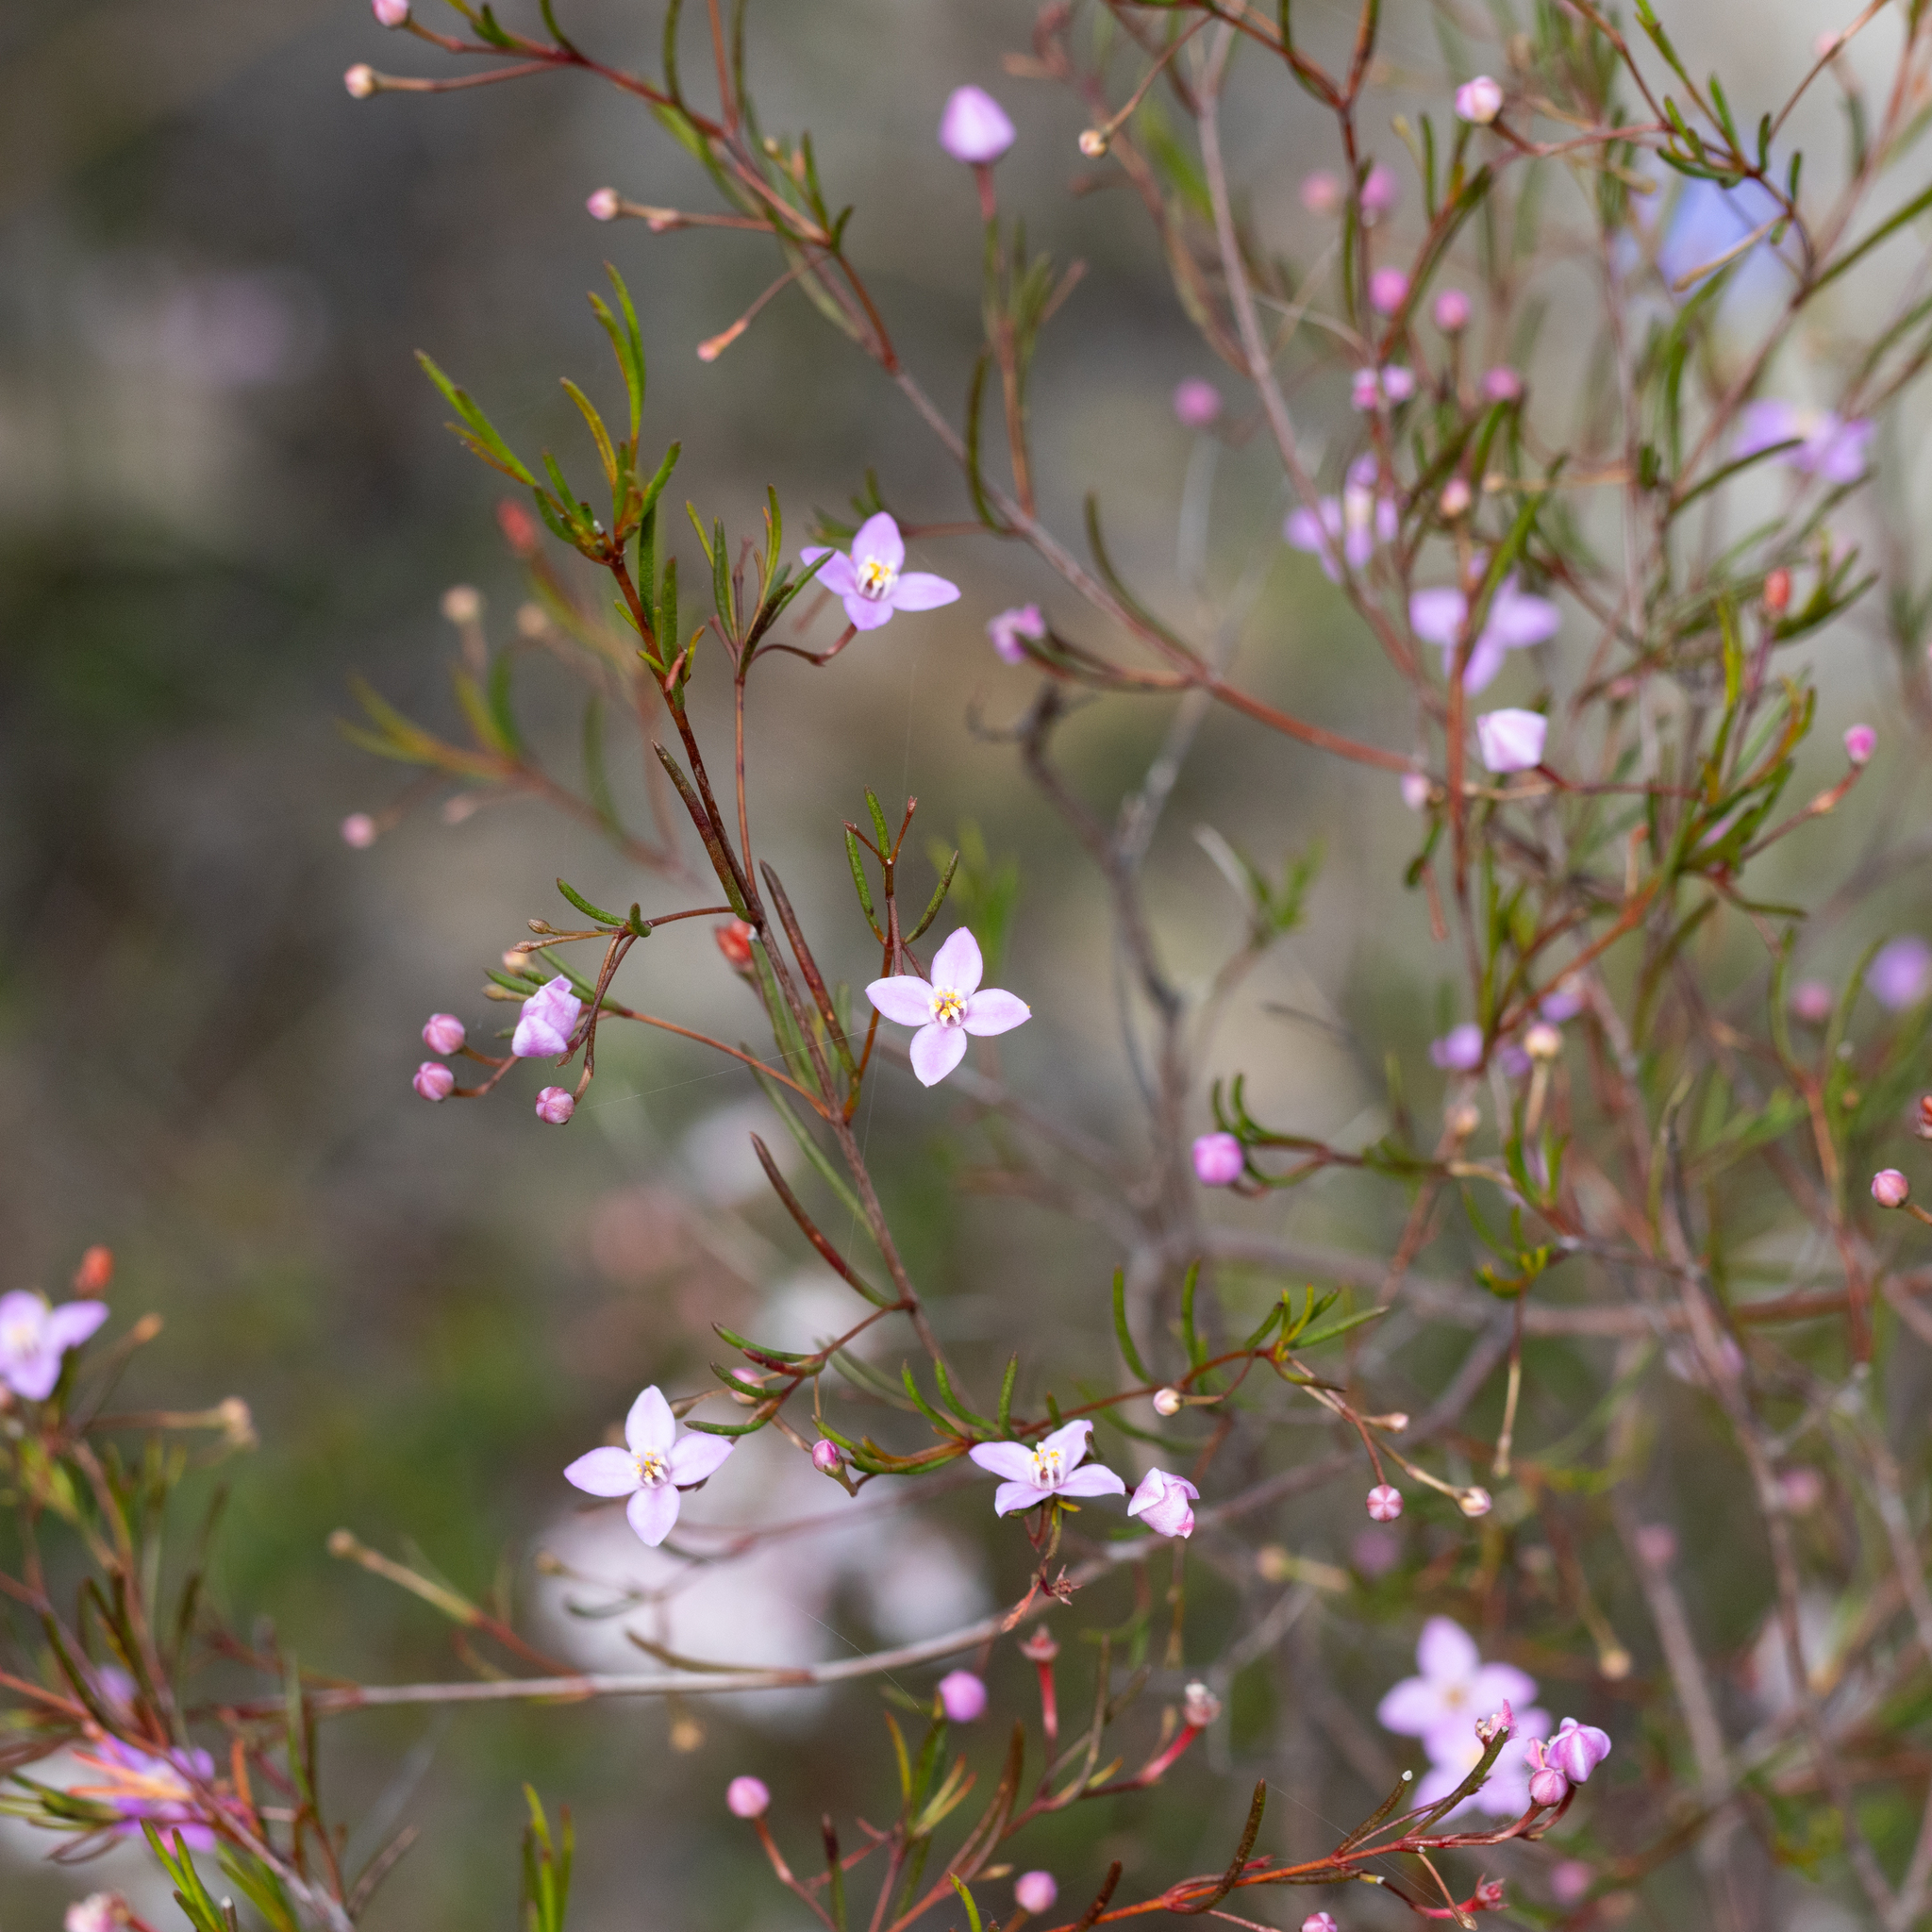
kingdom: Plantae
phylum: Tracheophyta
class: Magnoliopsida
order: Sapindales
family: Rutaceae
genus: Boronia
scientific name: Boronia filifolia
